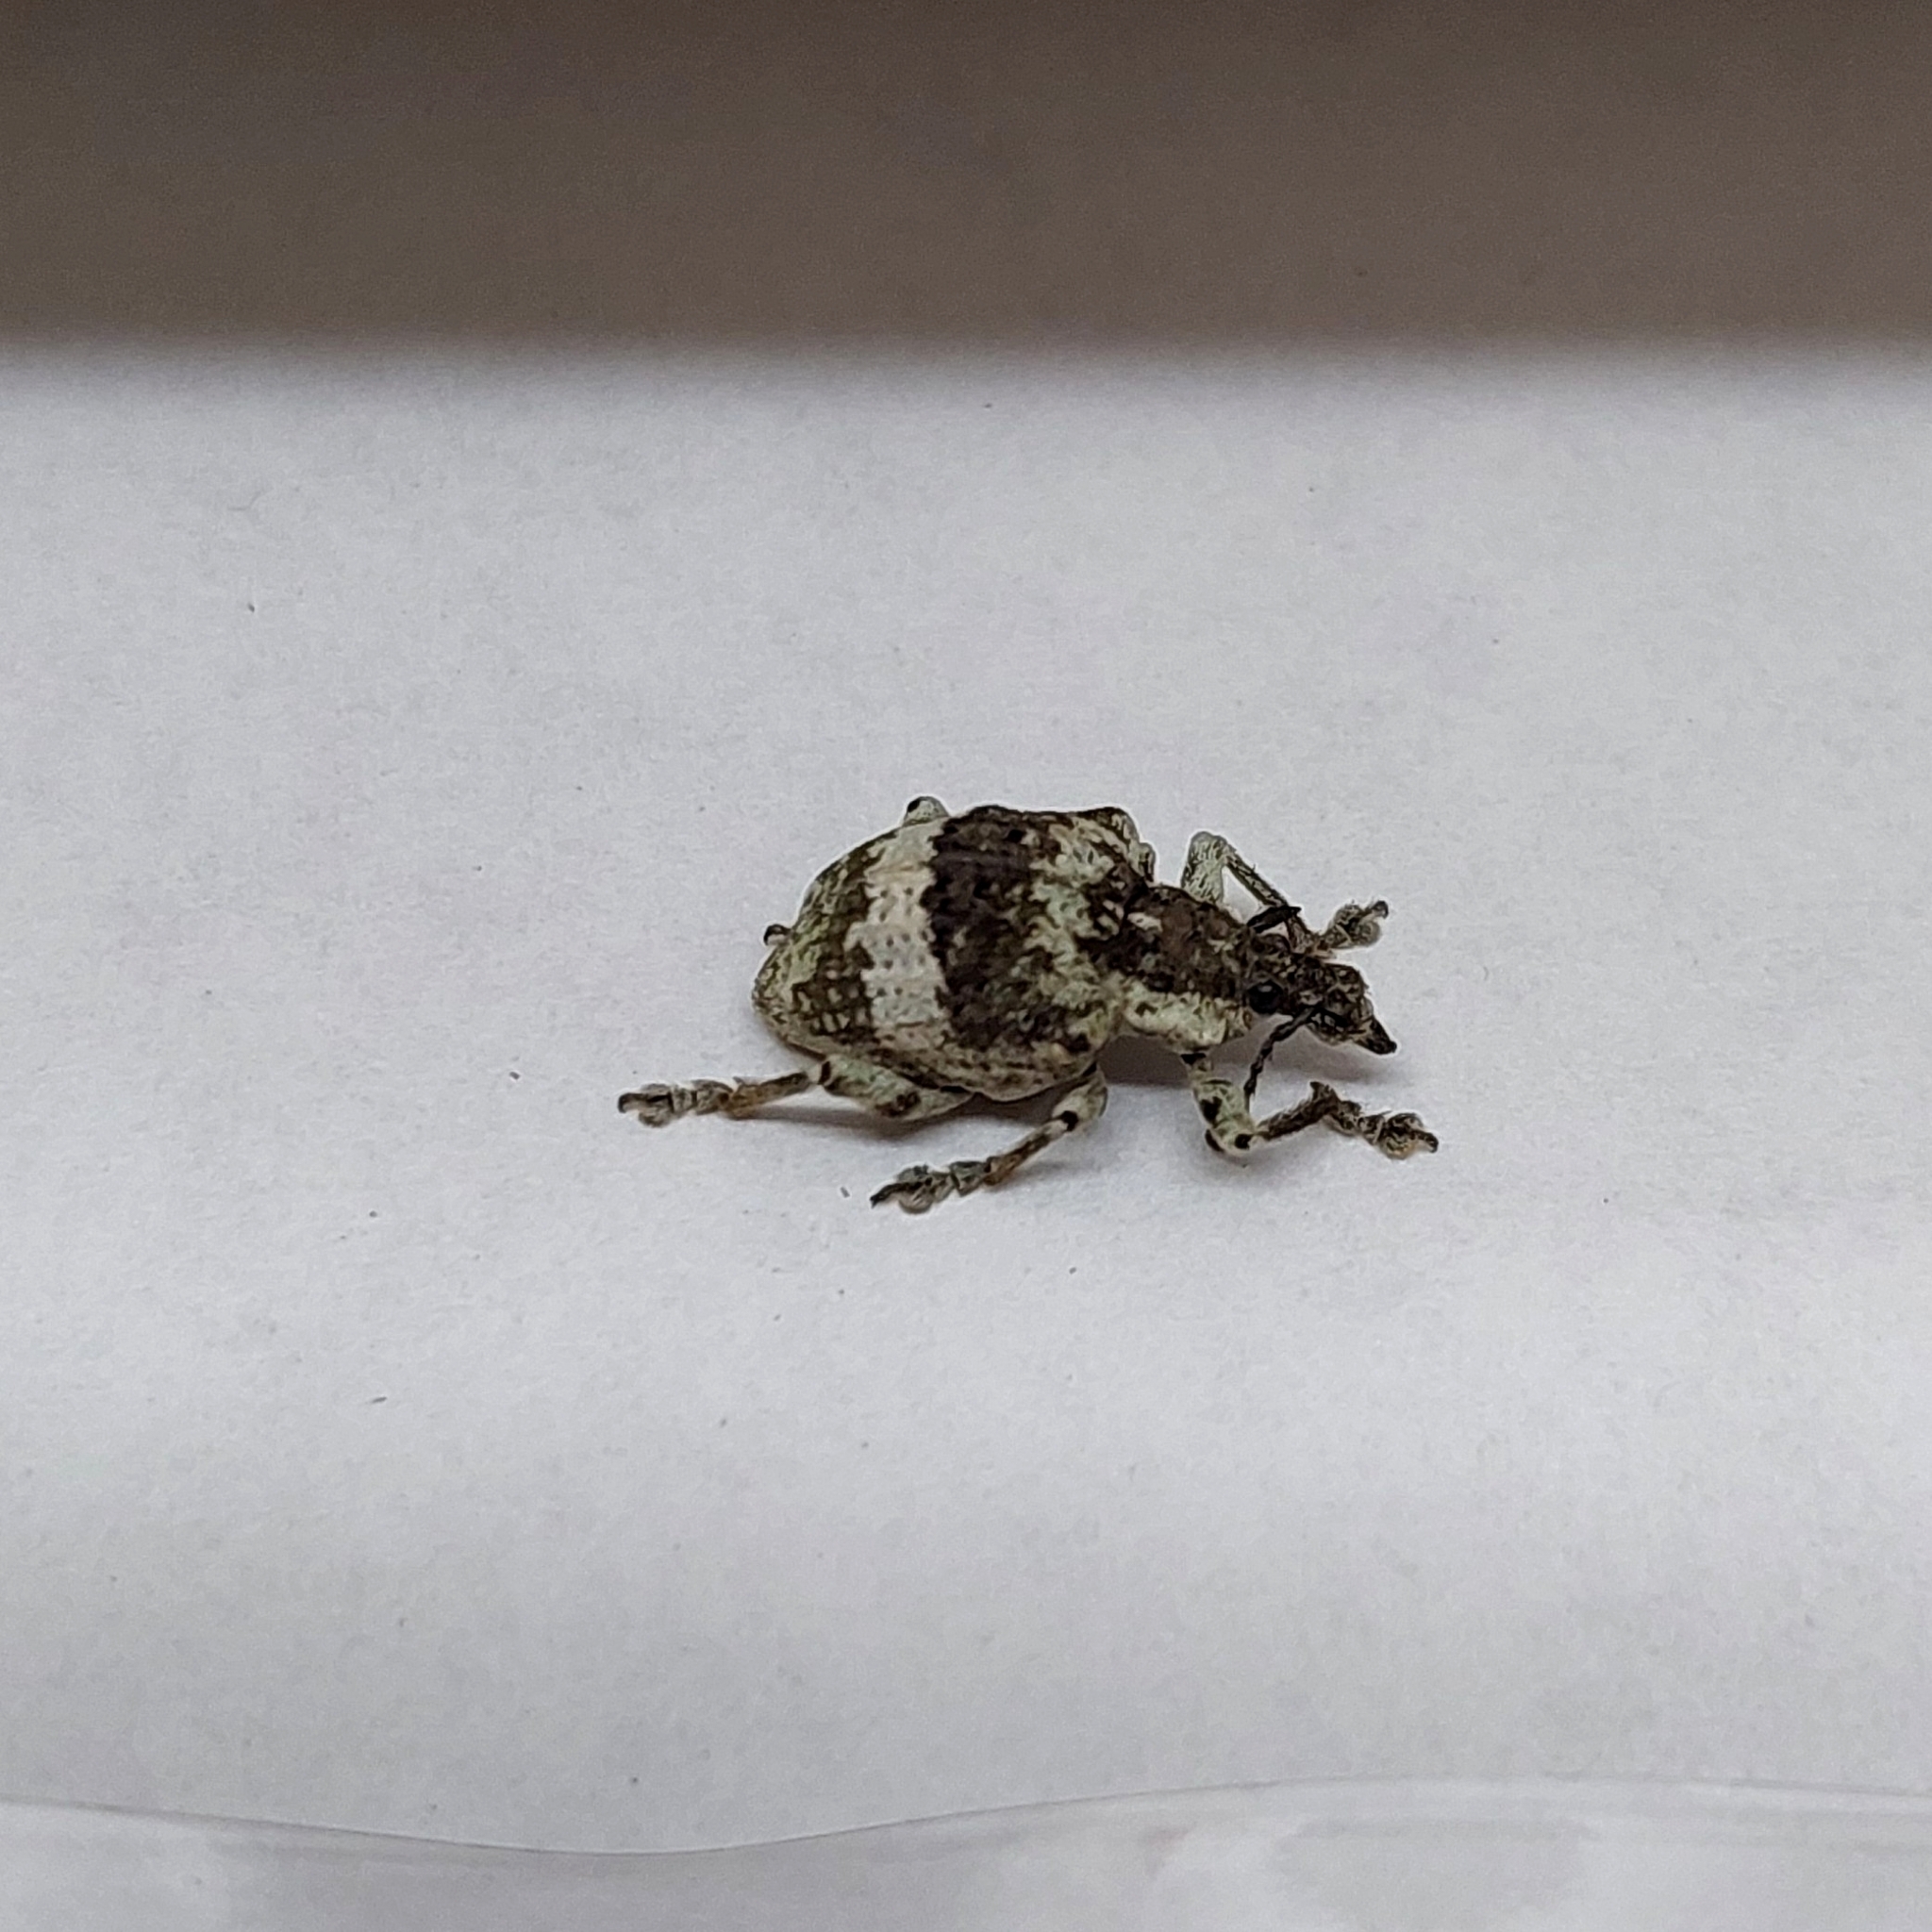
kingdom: Animalia
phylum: Arthropoda
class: Insecta
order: Coleoptera
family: Curculionidae
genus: Polyteles
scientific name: Polyteles guerini
